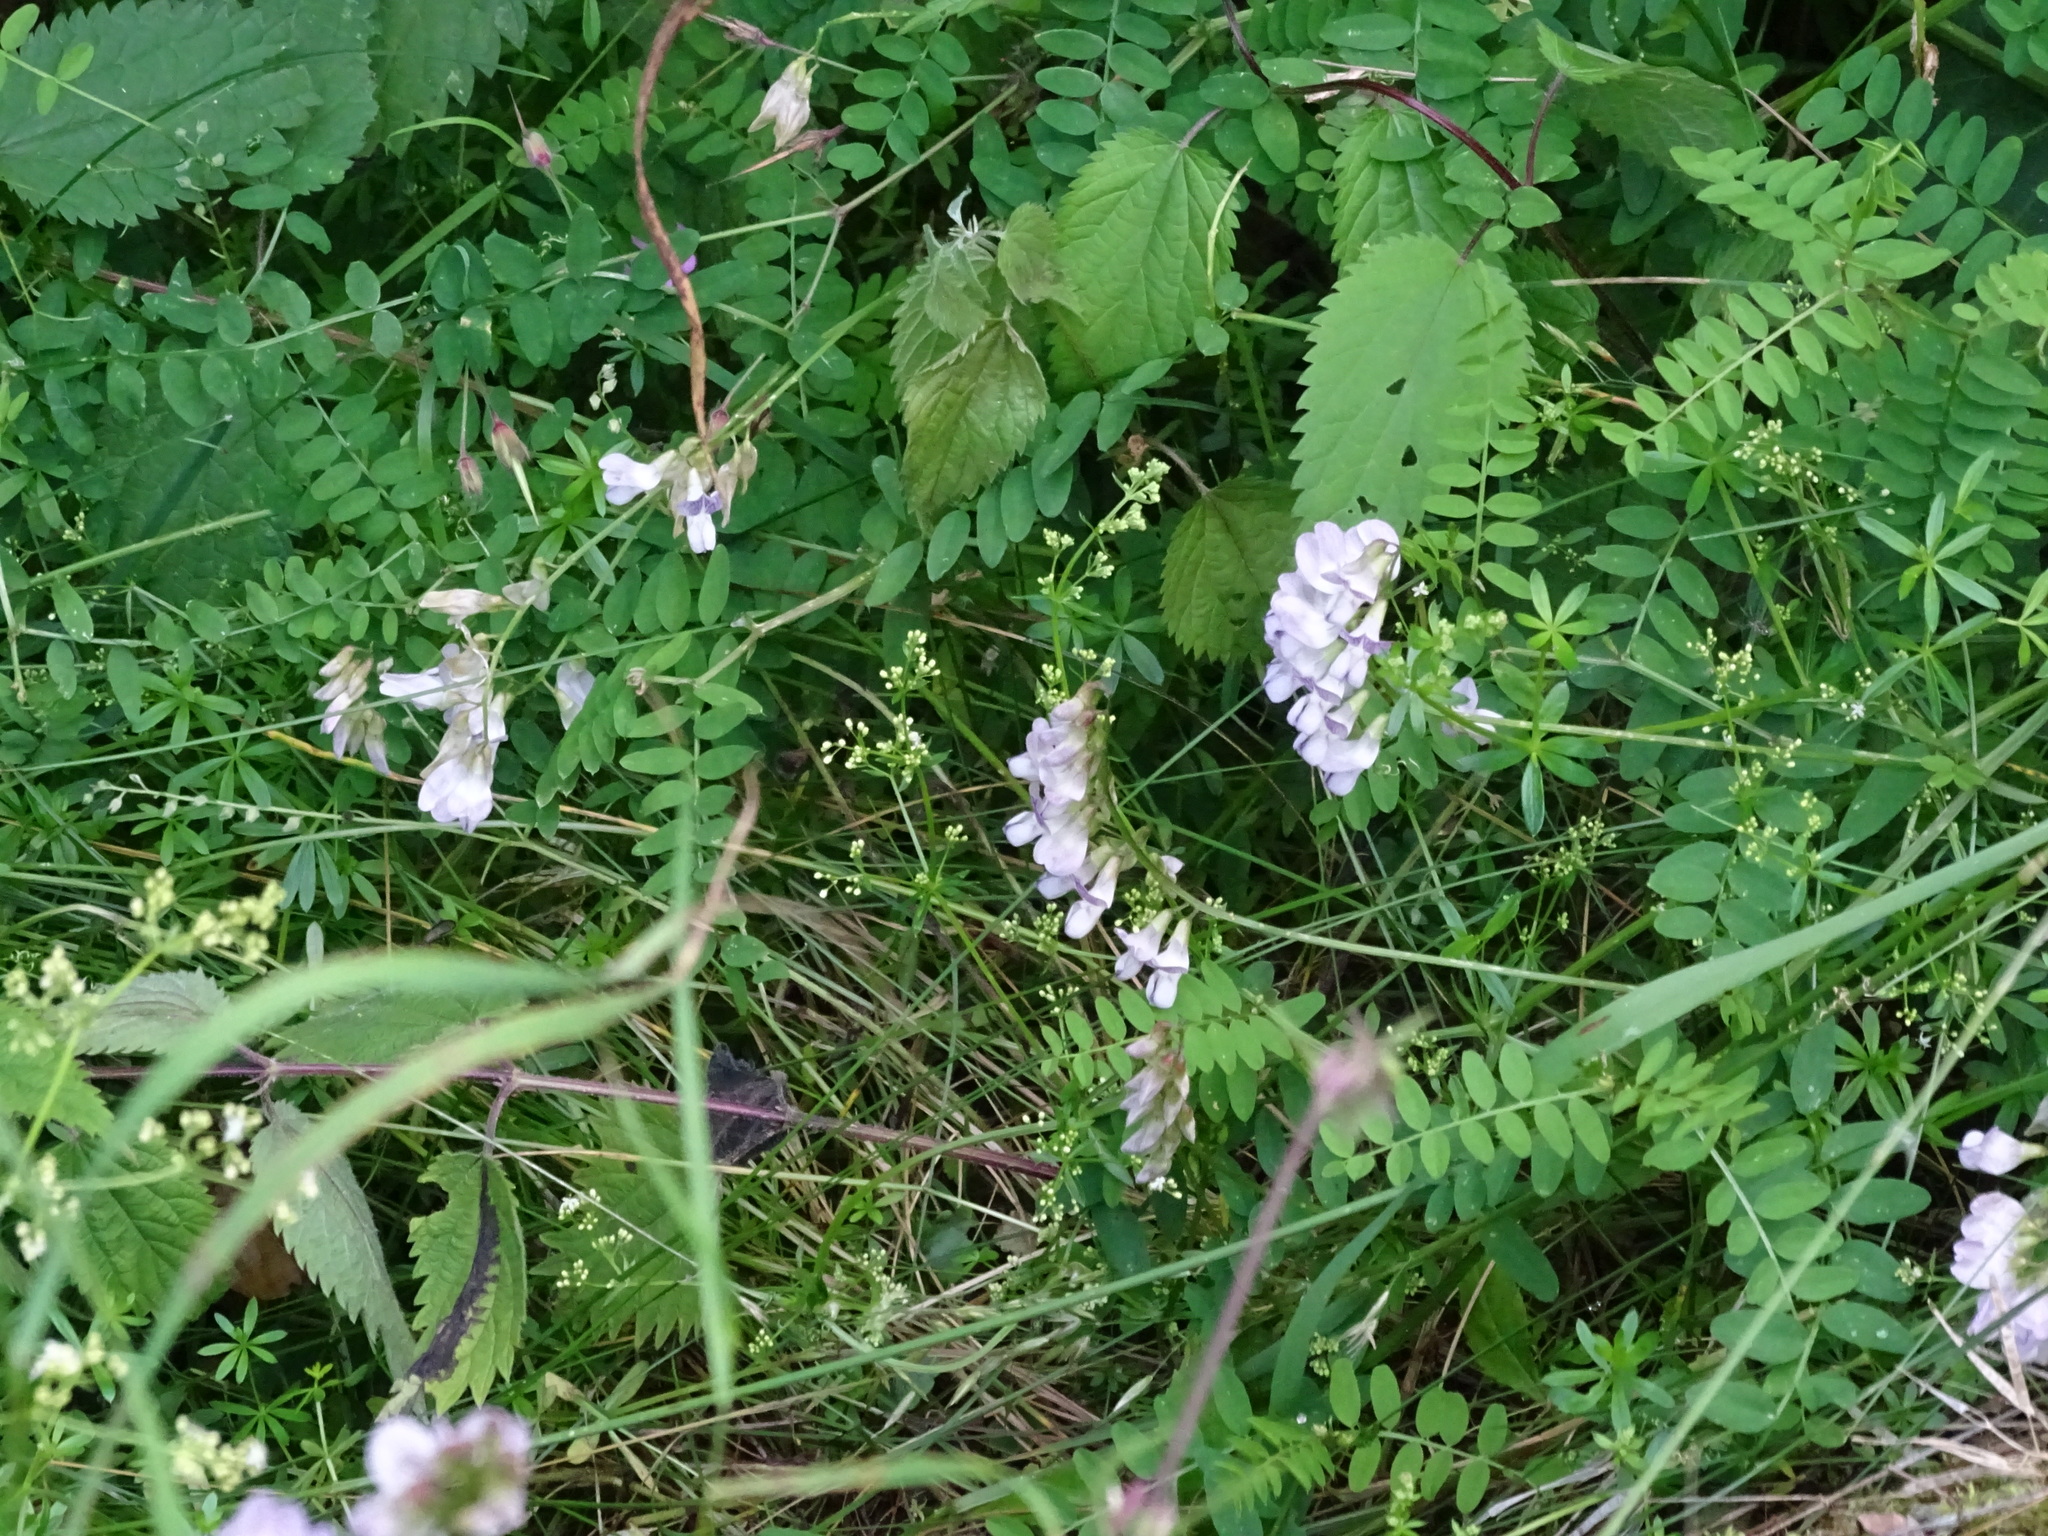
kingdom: Plantae
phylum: Tracheophyta
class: Magnoliopsida
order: Fabales
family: Fabaceae
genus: Vicia
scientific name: Vicia sylvatica
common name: Wood vetch
